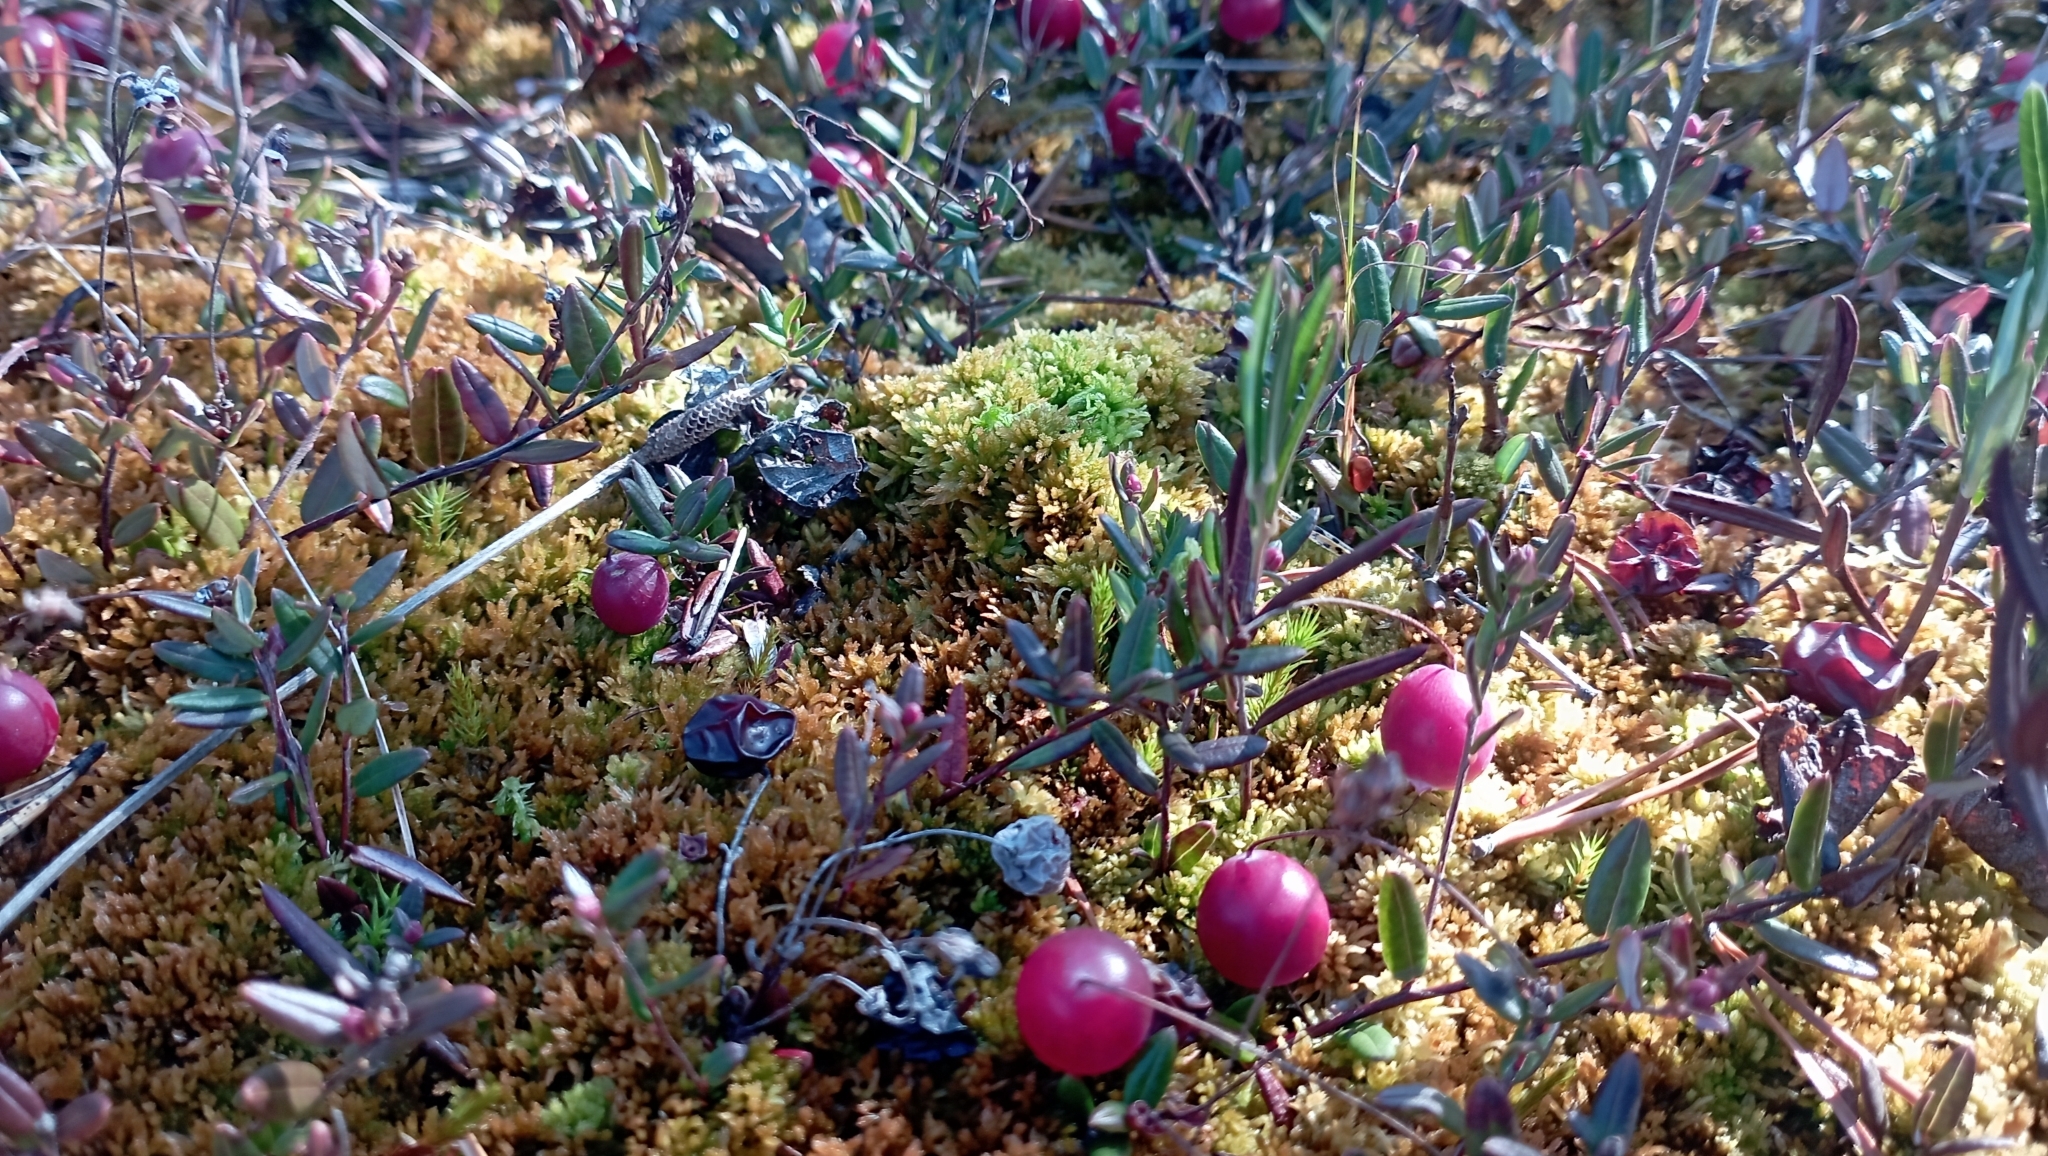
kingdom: Plantae
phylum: Tracheophyta
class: Magnoliopsida
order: Ericales
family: Ericaceae
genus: Vaccinium
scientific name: Vaccinium oxycoccos
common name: Cranberry
